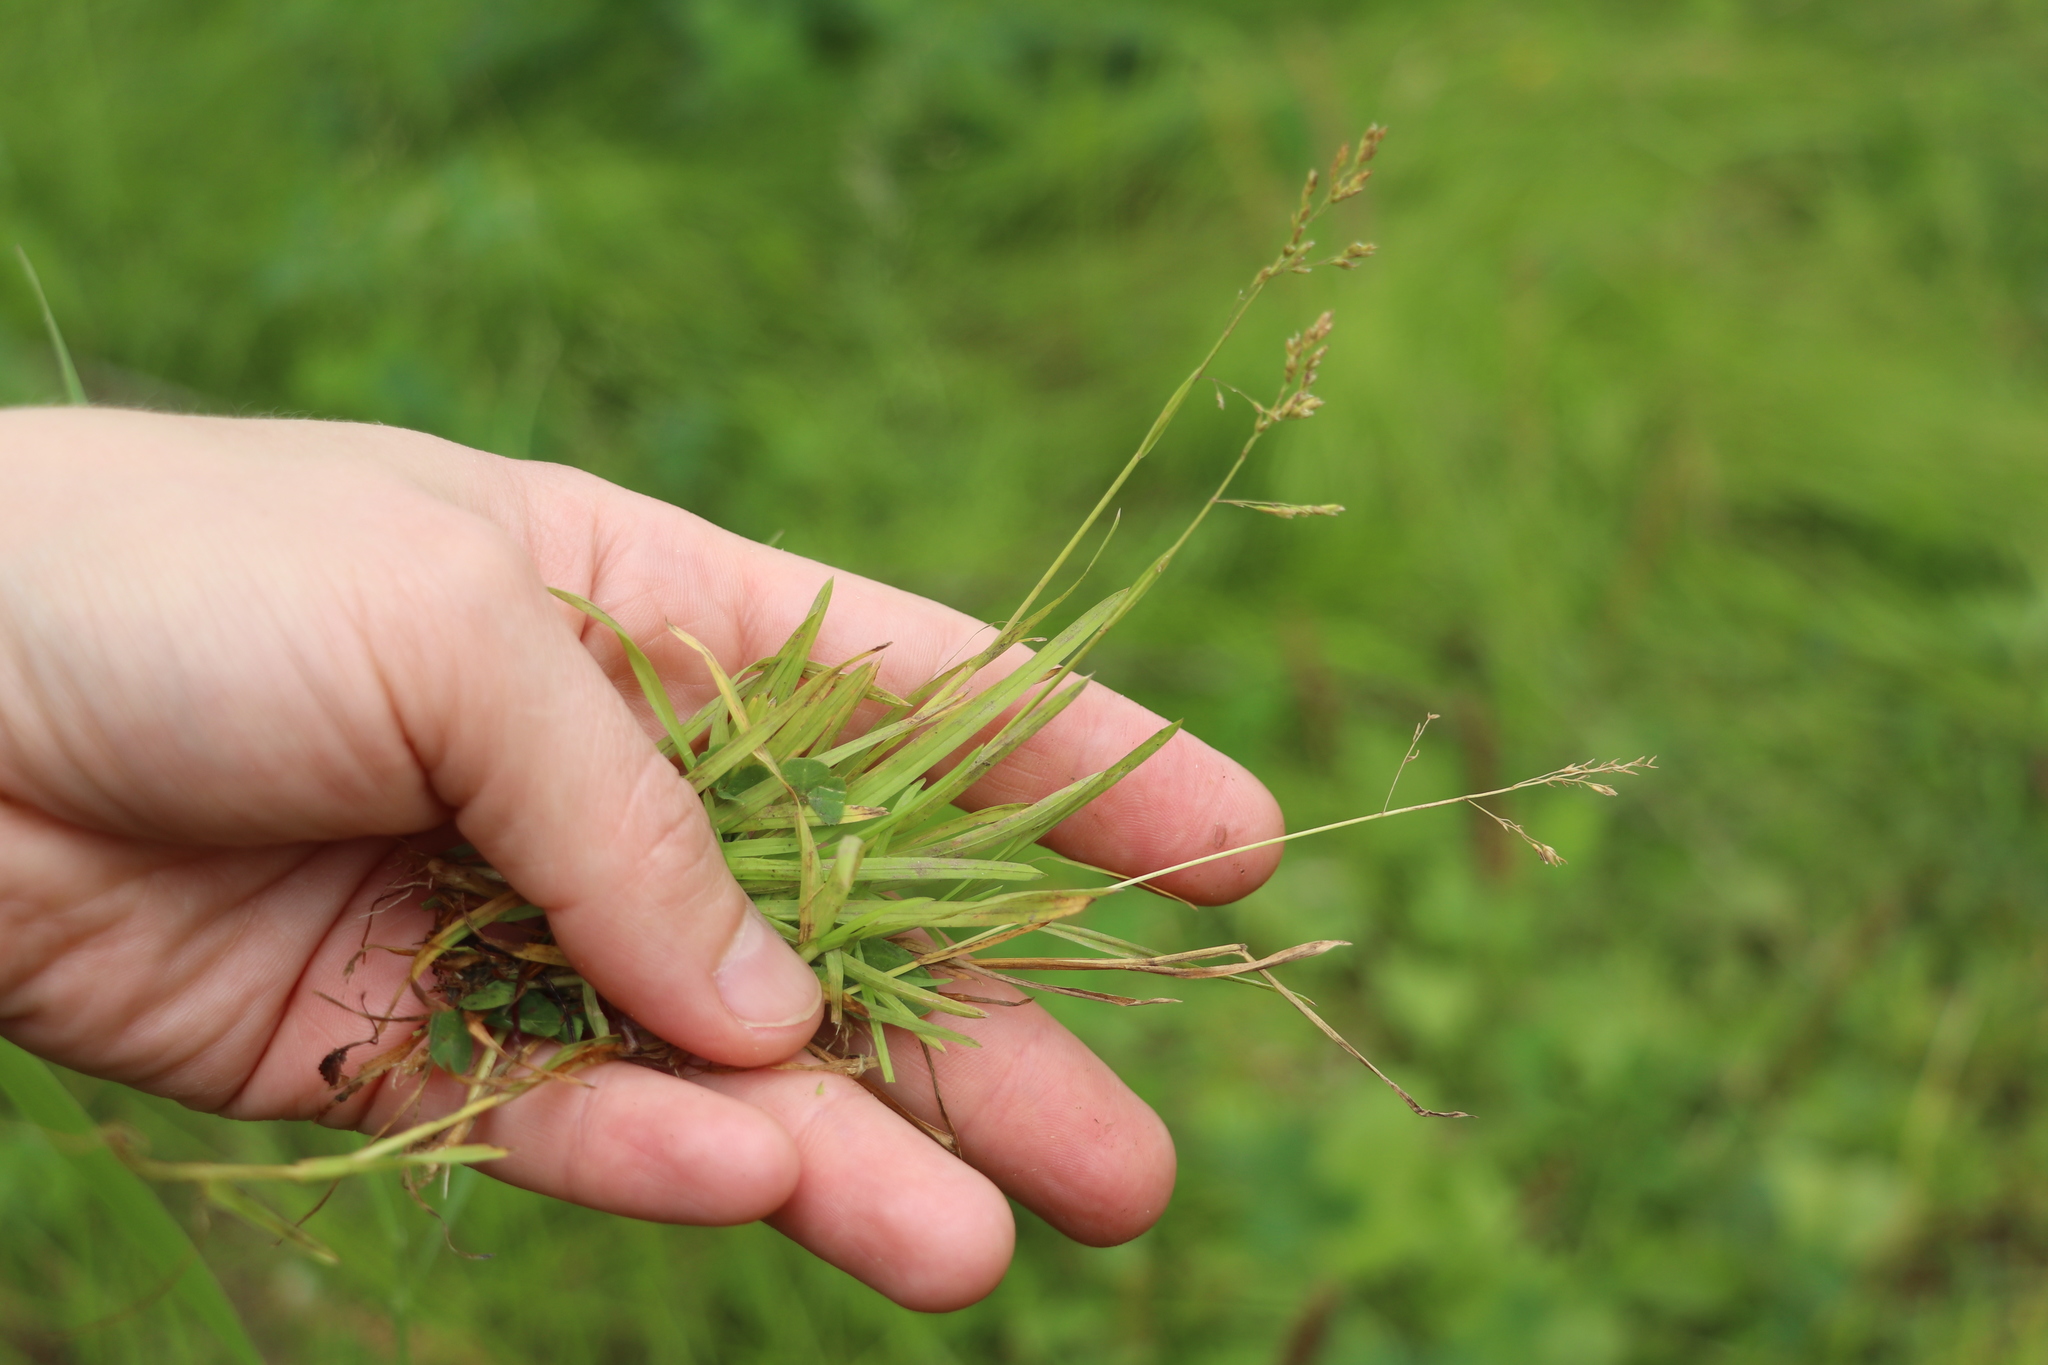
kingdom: Plantae
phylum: Tracheophyta
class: Liliopsida
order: Poales
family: Poaceae
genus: Poa
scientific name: Poa annua
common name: Annual bluegrass
